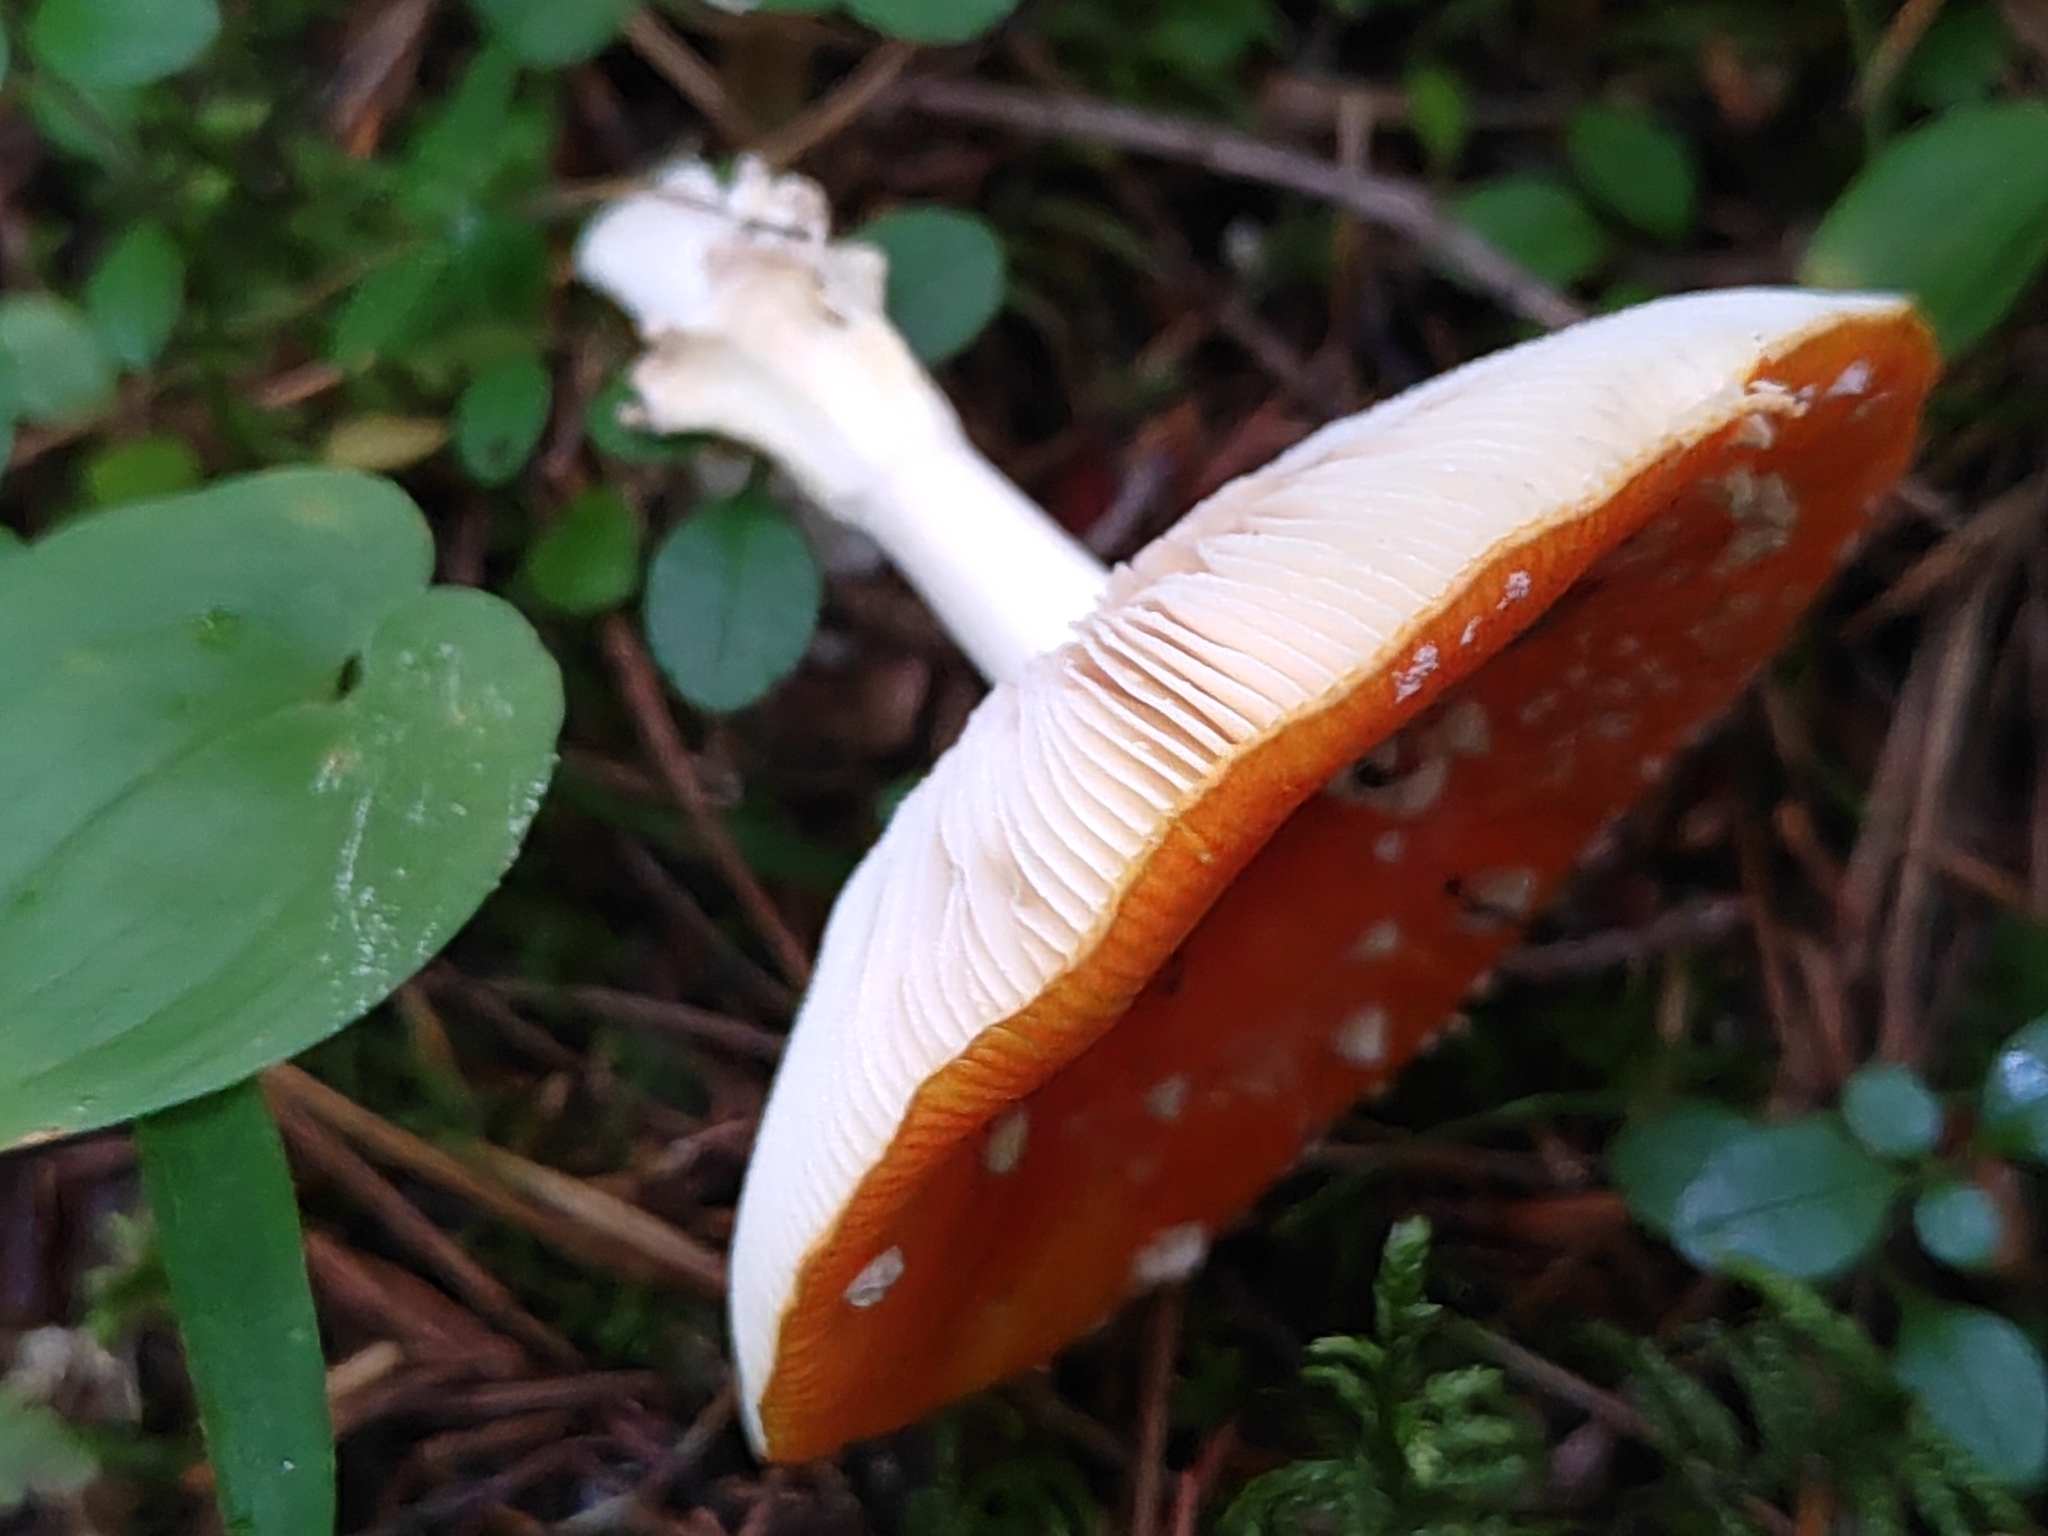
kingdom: Fungi
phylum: Basidiomycota
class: Agaricomycetes
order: Agaricales
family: Amanitaceae
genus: Amanita
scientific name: Amanita muscaria
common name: Fly agaric
